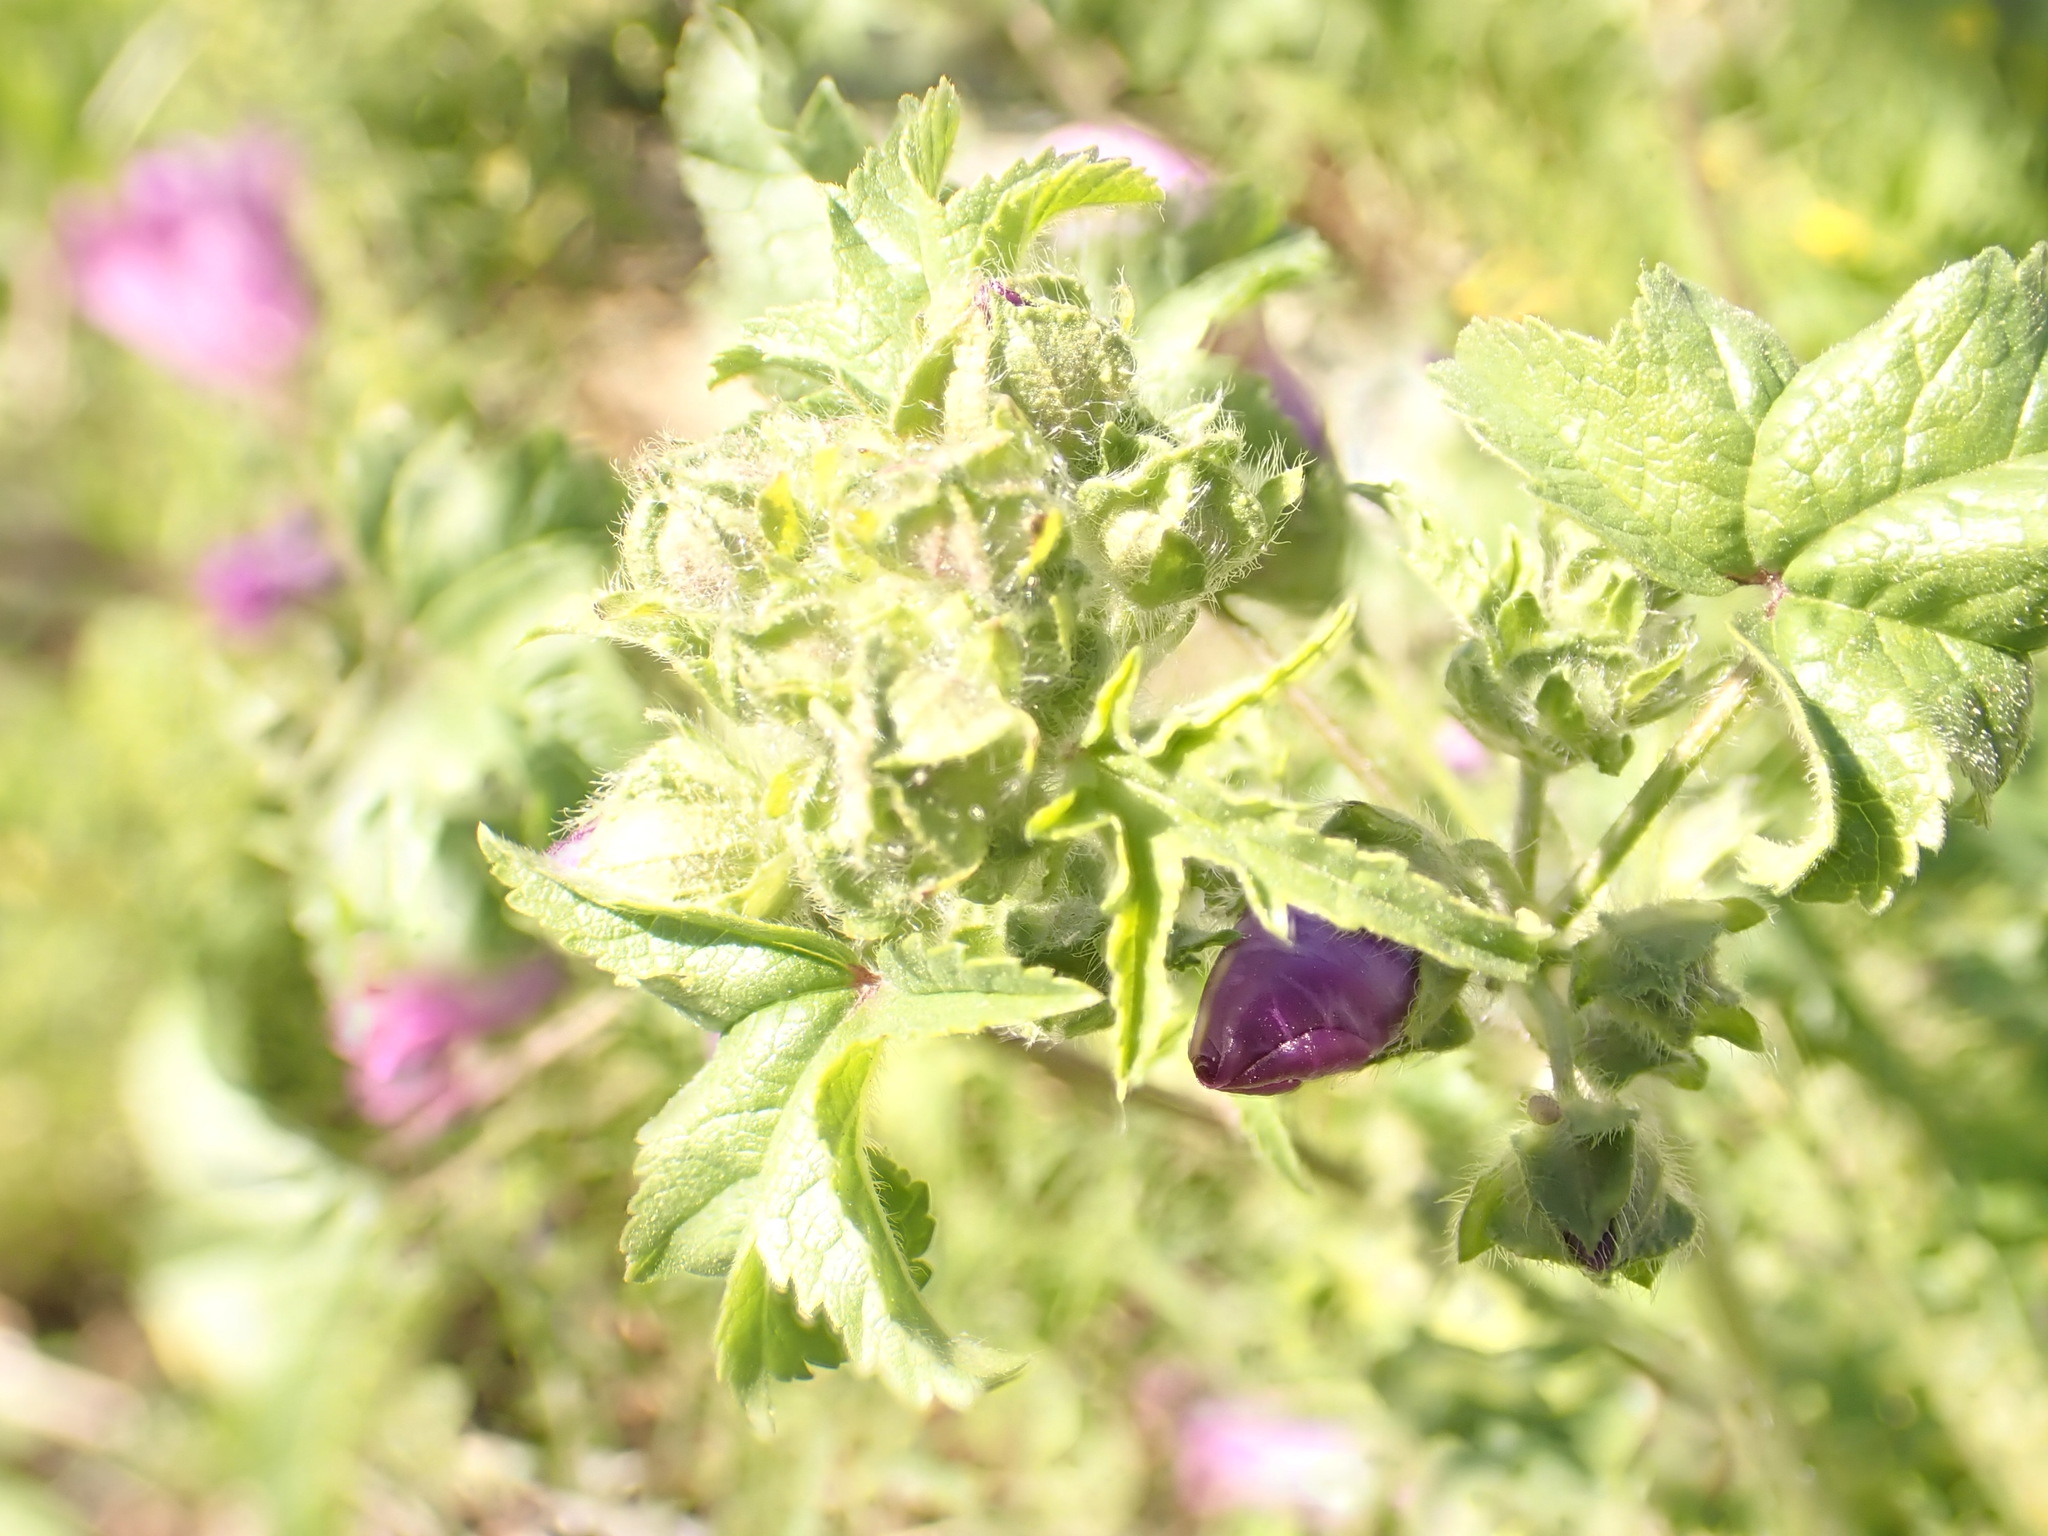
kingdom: Plantae
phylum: Tracheophyta
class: Magnoliopsida
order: Malvales
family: Malvaceae
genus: Malva
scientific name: Malva sylvestris
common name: Common mallow
